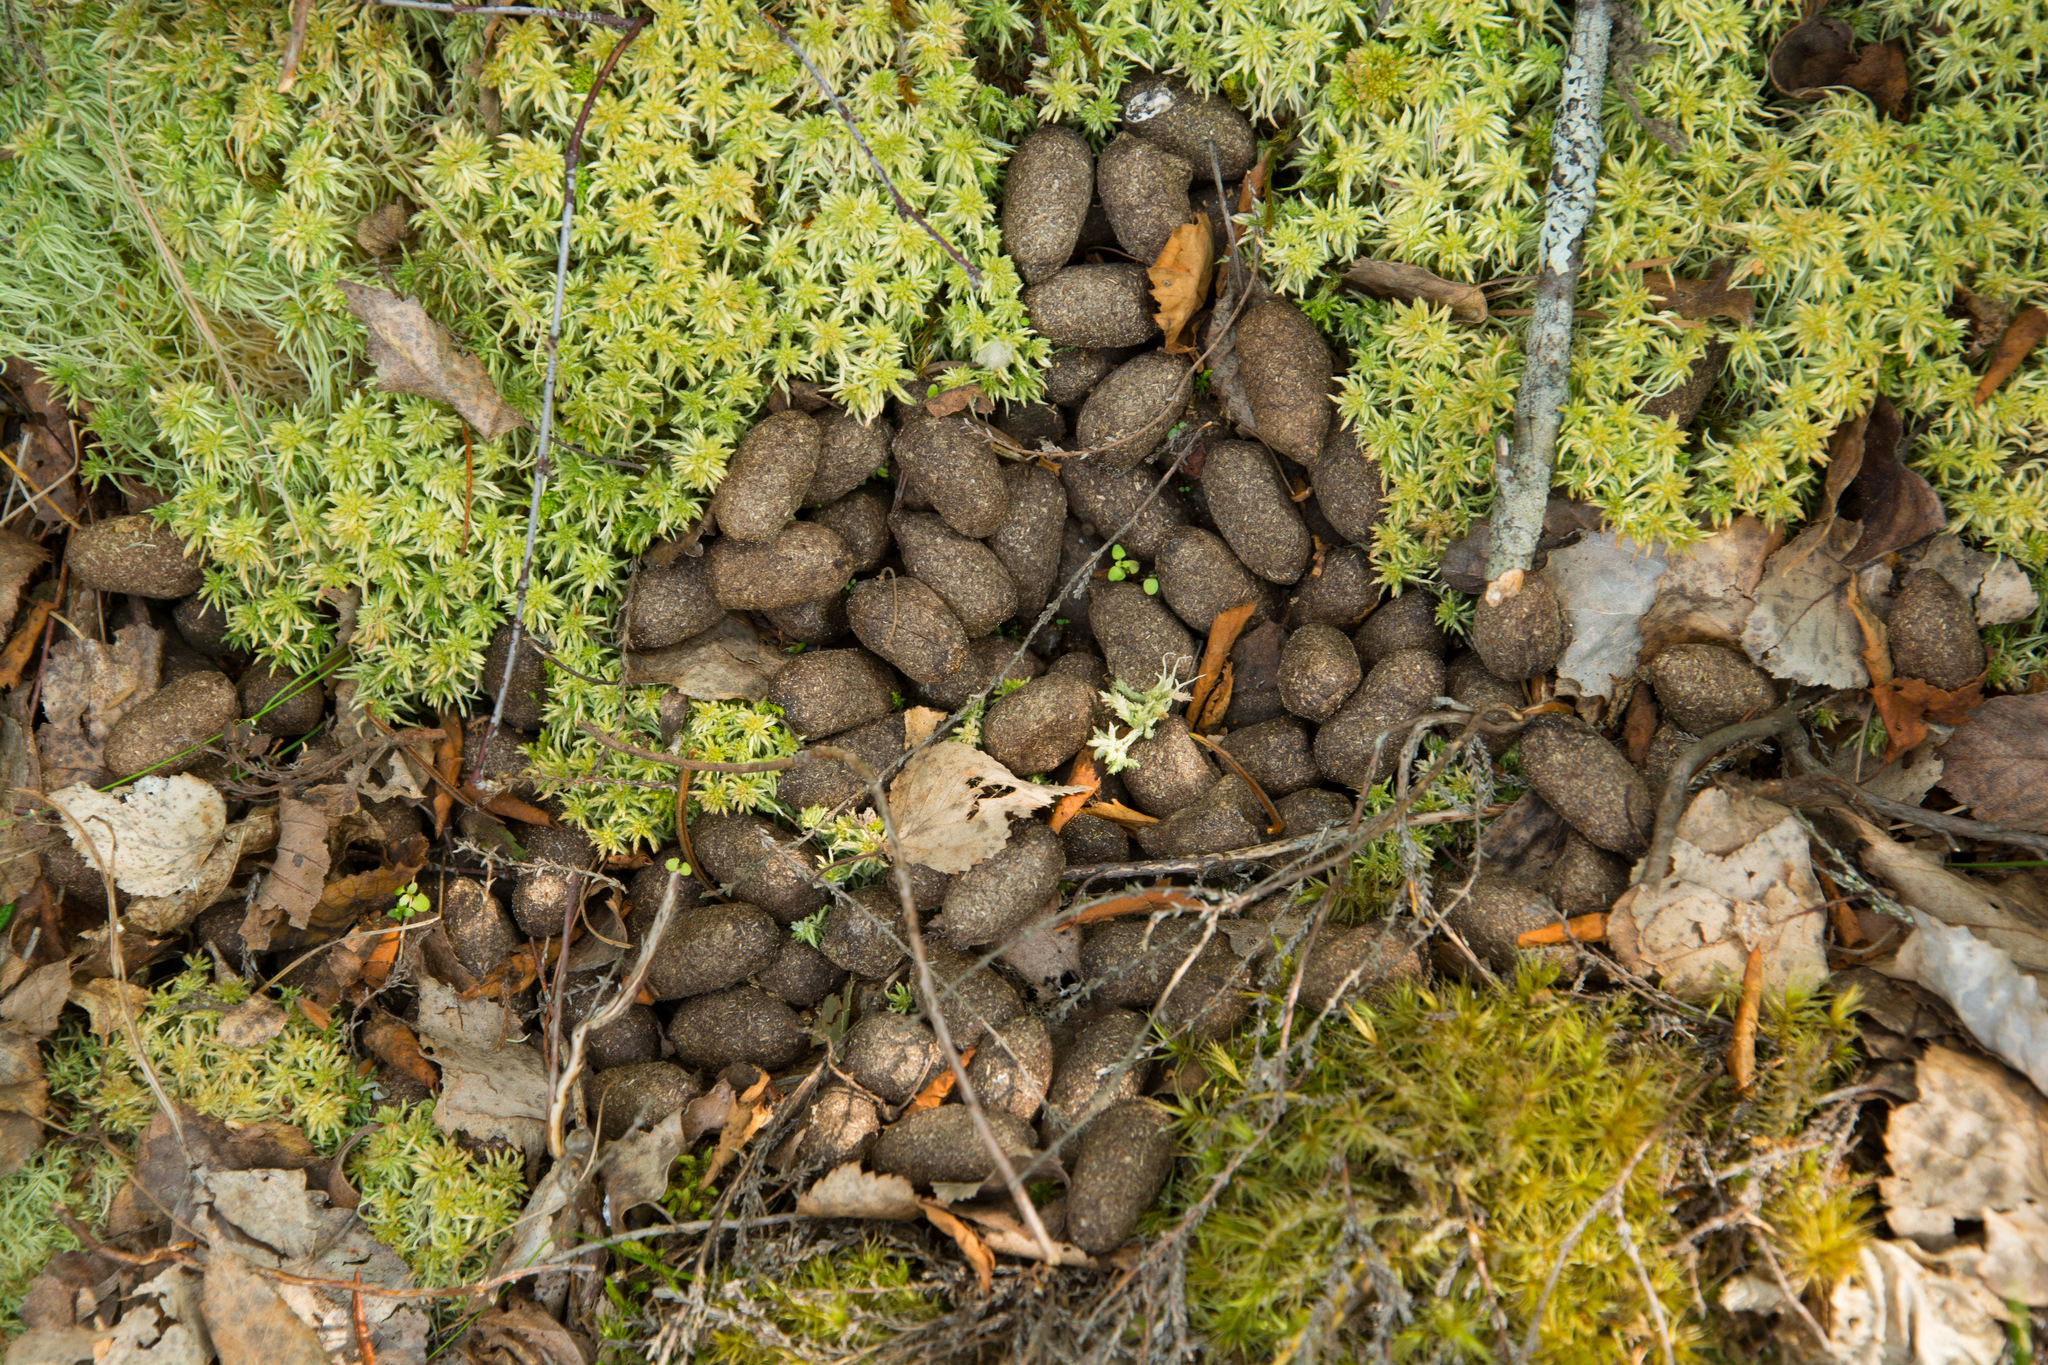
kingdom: Animalia
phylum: Chordata
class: Mammalia
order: Artiodactyla
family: Cervidae
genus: Alces
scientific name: Alces alces
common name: Moose
